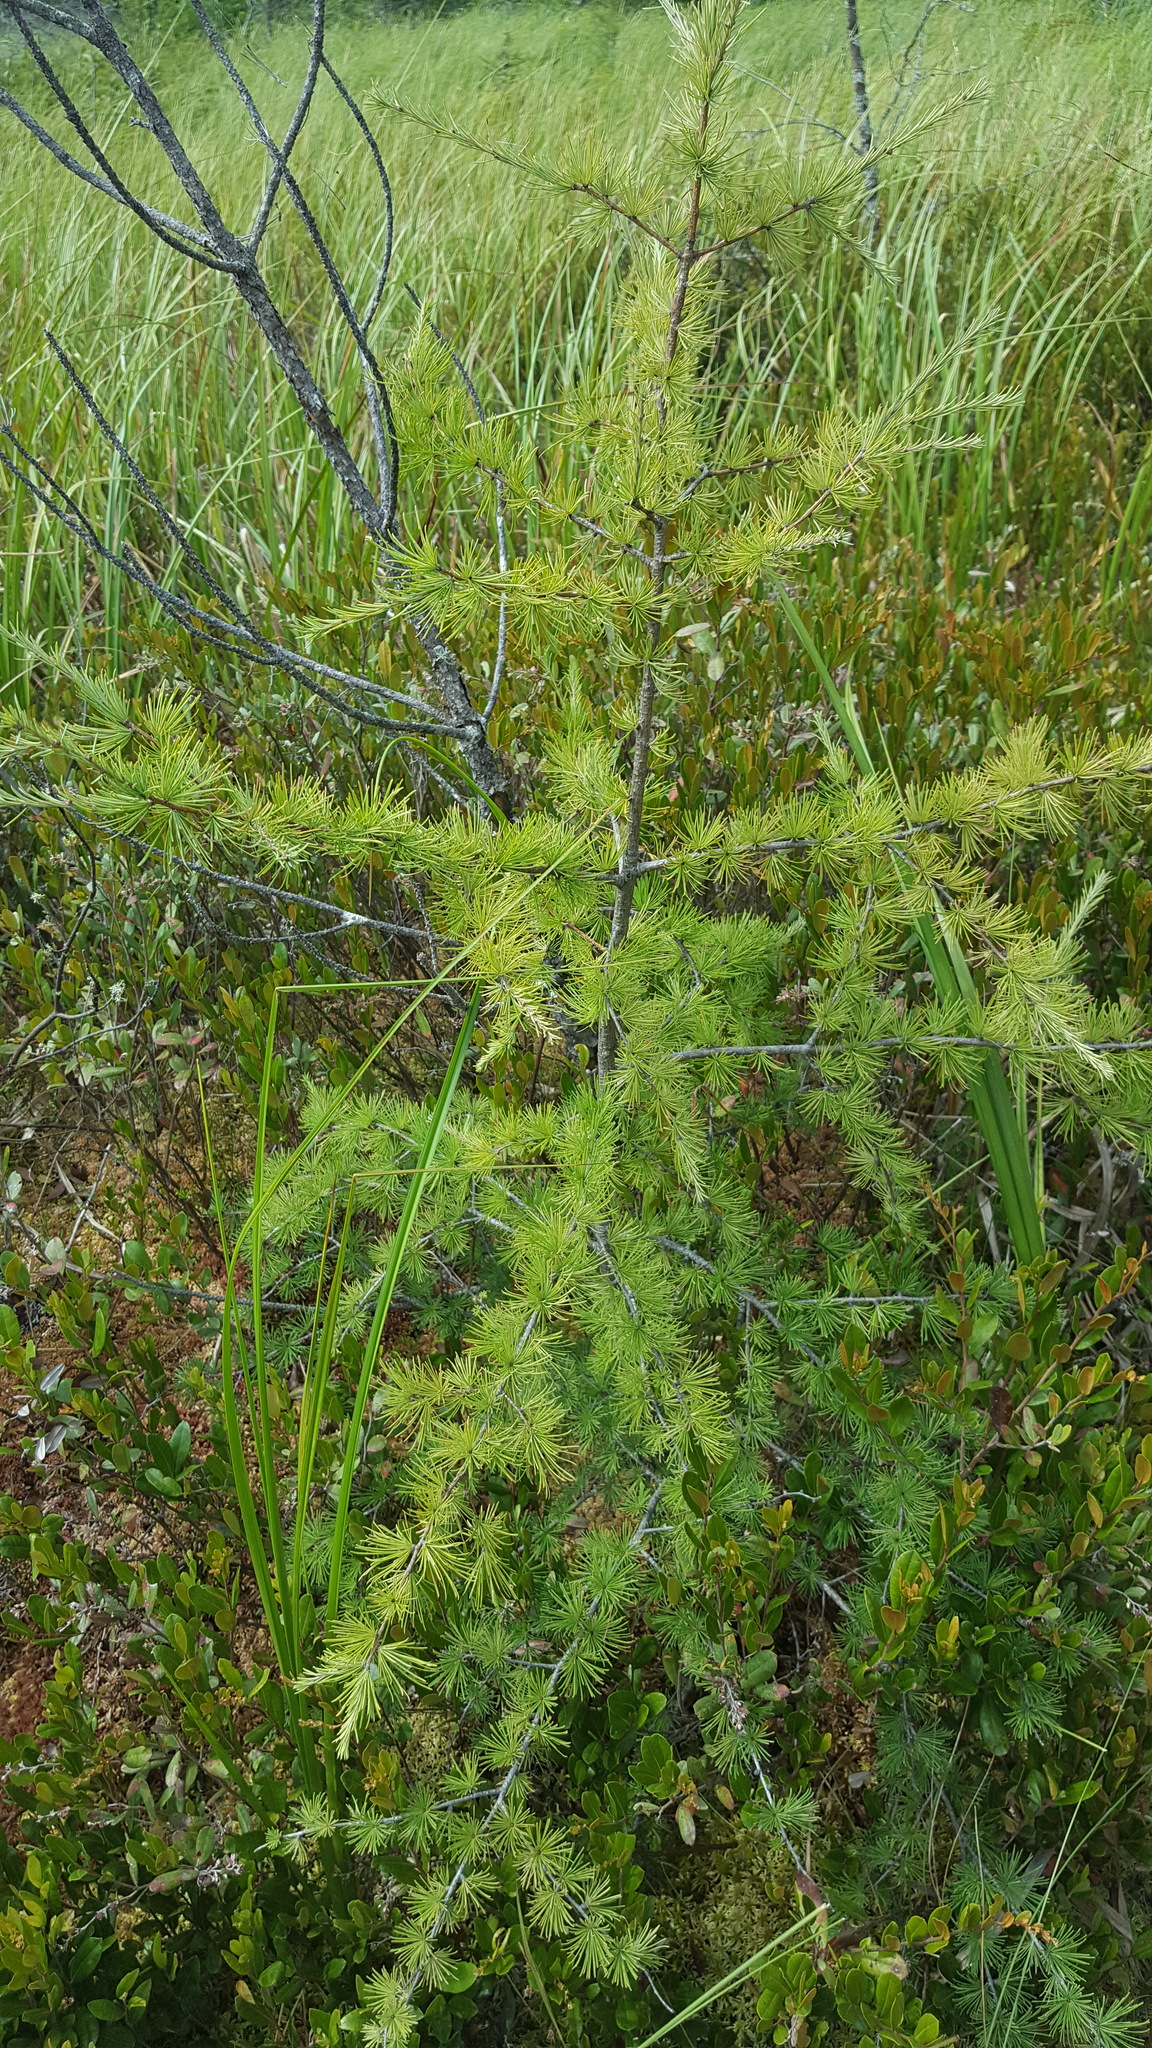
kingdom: Plantae
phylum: Tracheophyta
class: Pinopsida
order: Pinales
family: Pinaceae
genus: Larix
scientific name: Larix laricina
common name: American larch
